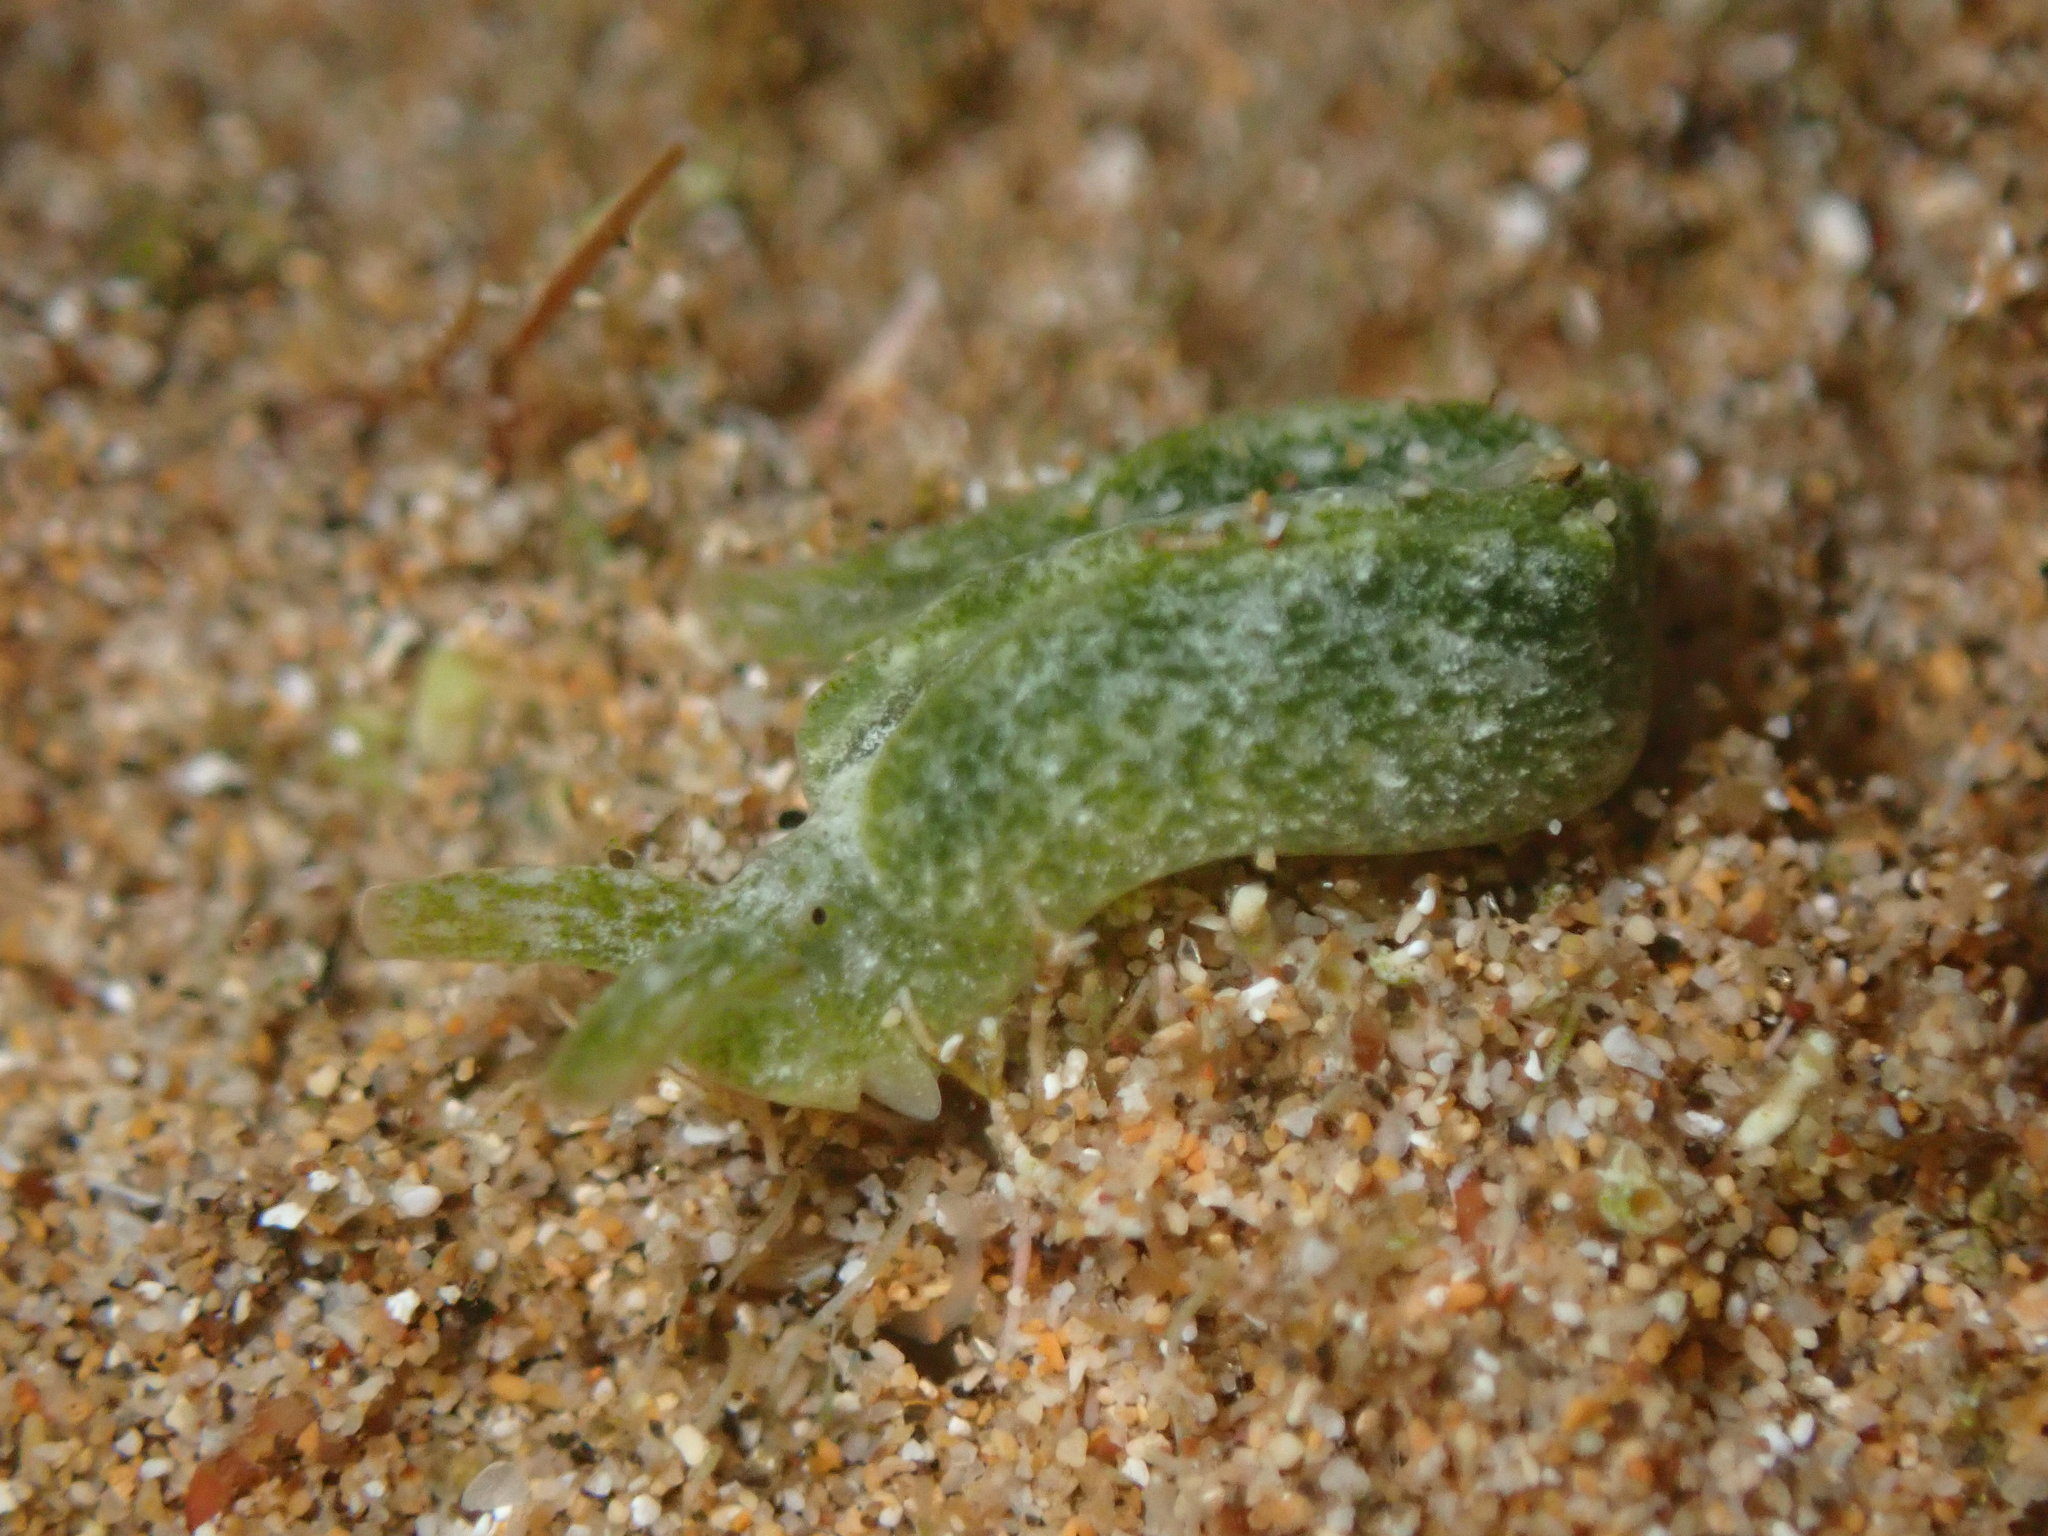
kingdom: Animalia
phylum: Mollusca
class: Gastropoda
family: Plakobranchidae
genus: Elysia
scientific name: Elysia nealae
